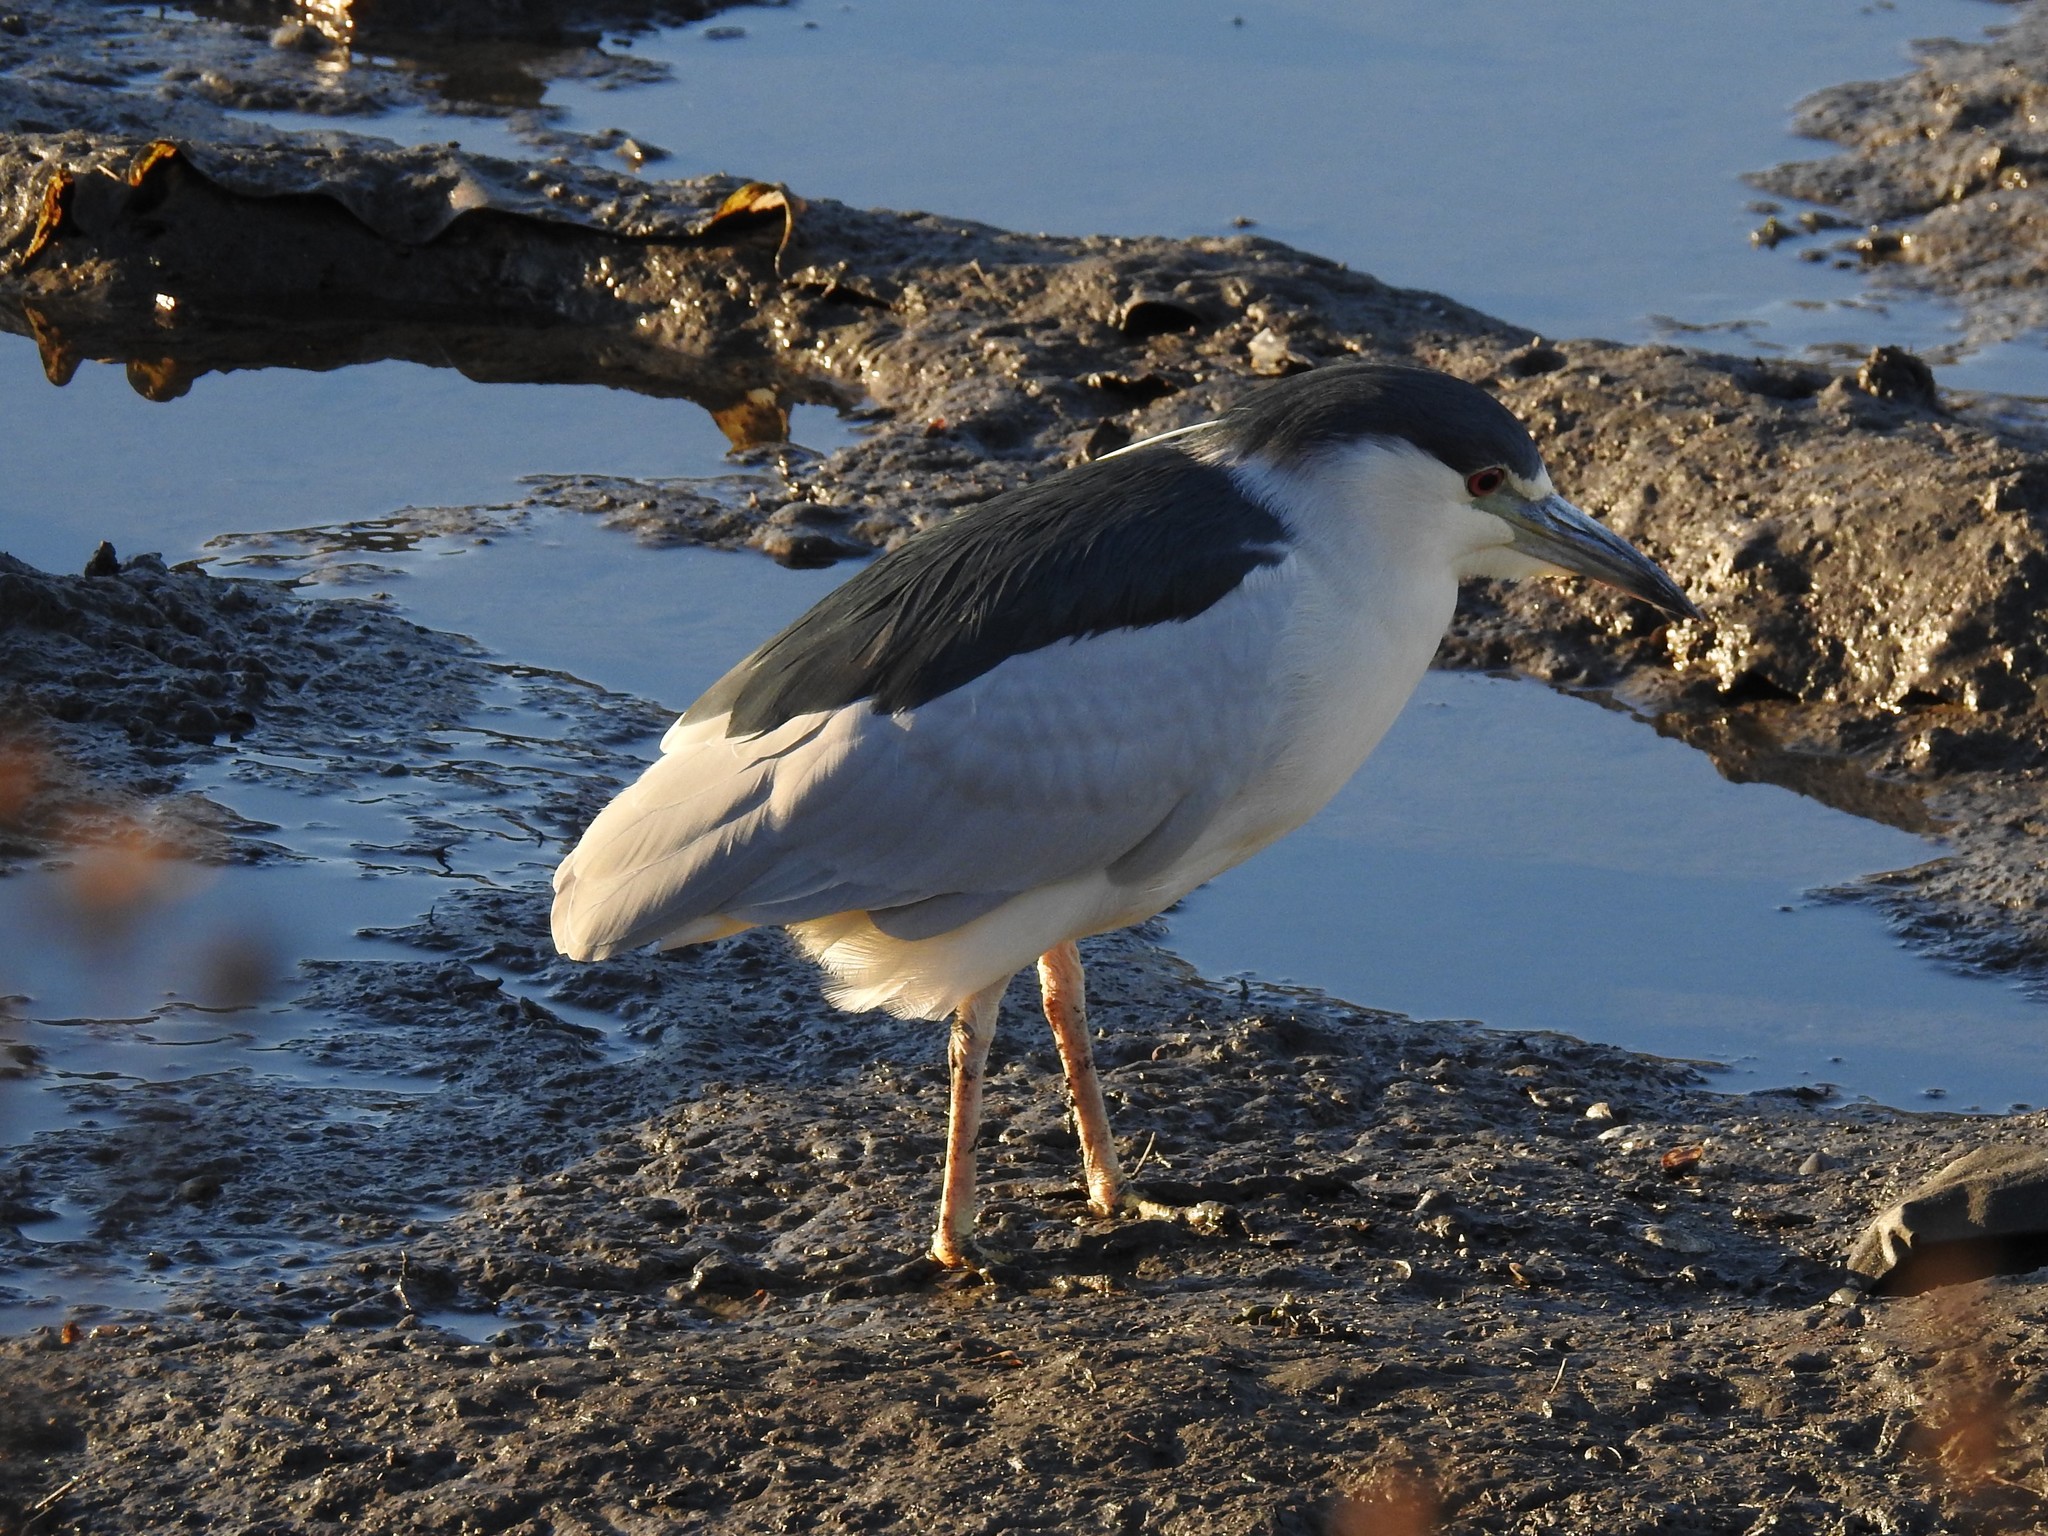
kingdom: Animalia
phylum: Chordata
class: Aves
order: Pelecaniformes
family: Ardeidae
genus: Nycticorax
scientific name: Nycticorax nycticorax
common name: Black-crowned night heron
